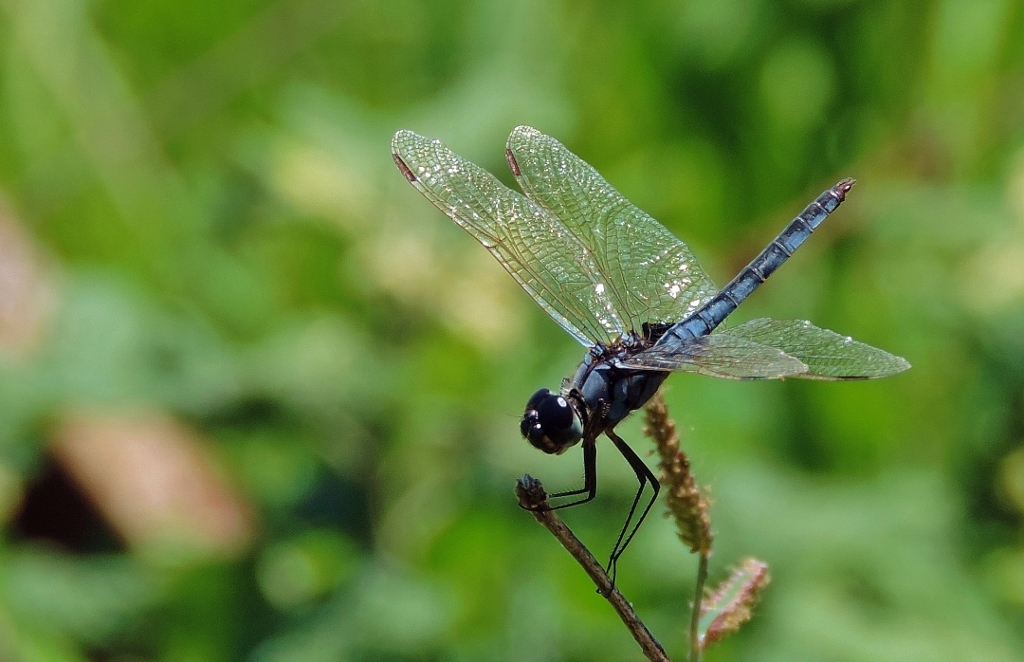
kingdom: Animalia
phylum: Arthropoda
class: Insecta
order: Odonata
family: Libellulidae
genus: Urothemis
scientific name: Urothemis edwardsii
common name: Blue basker
